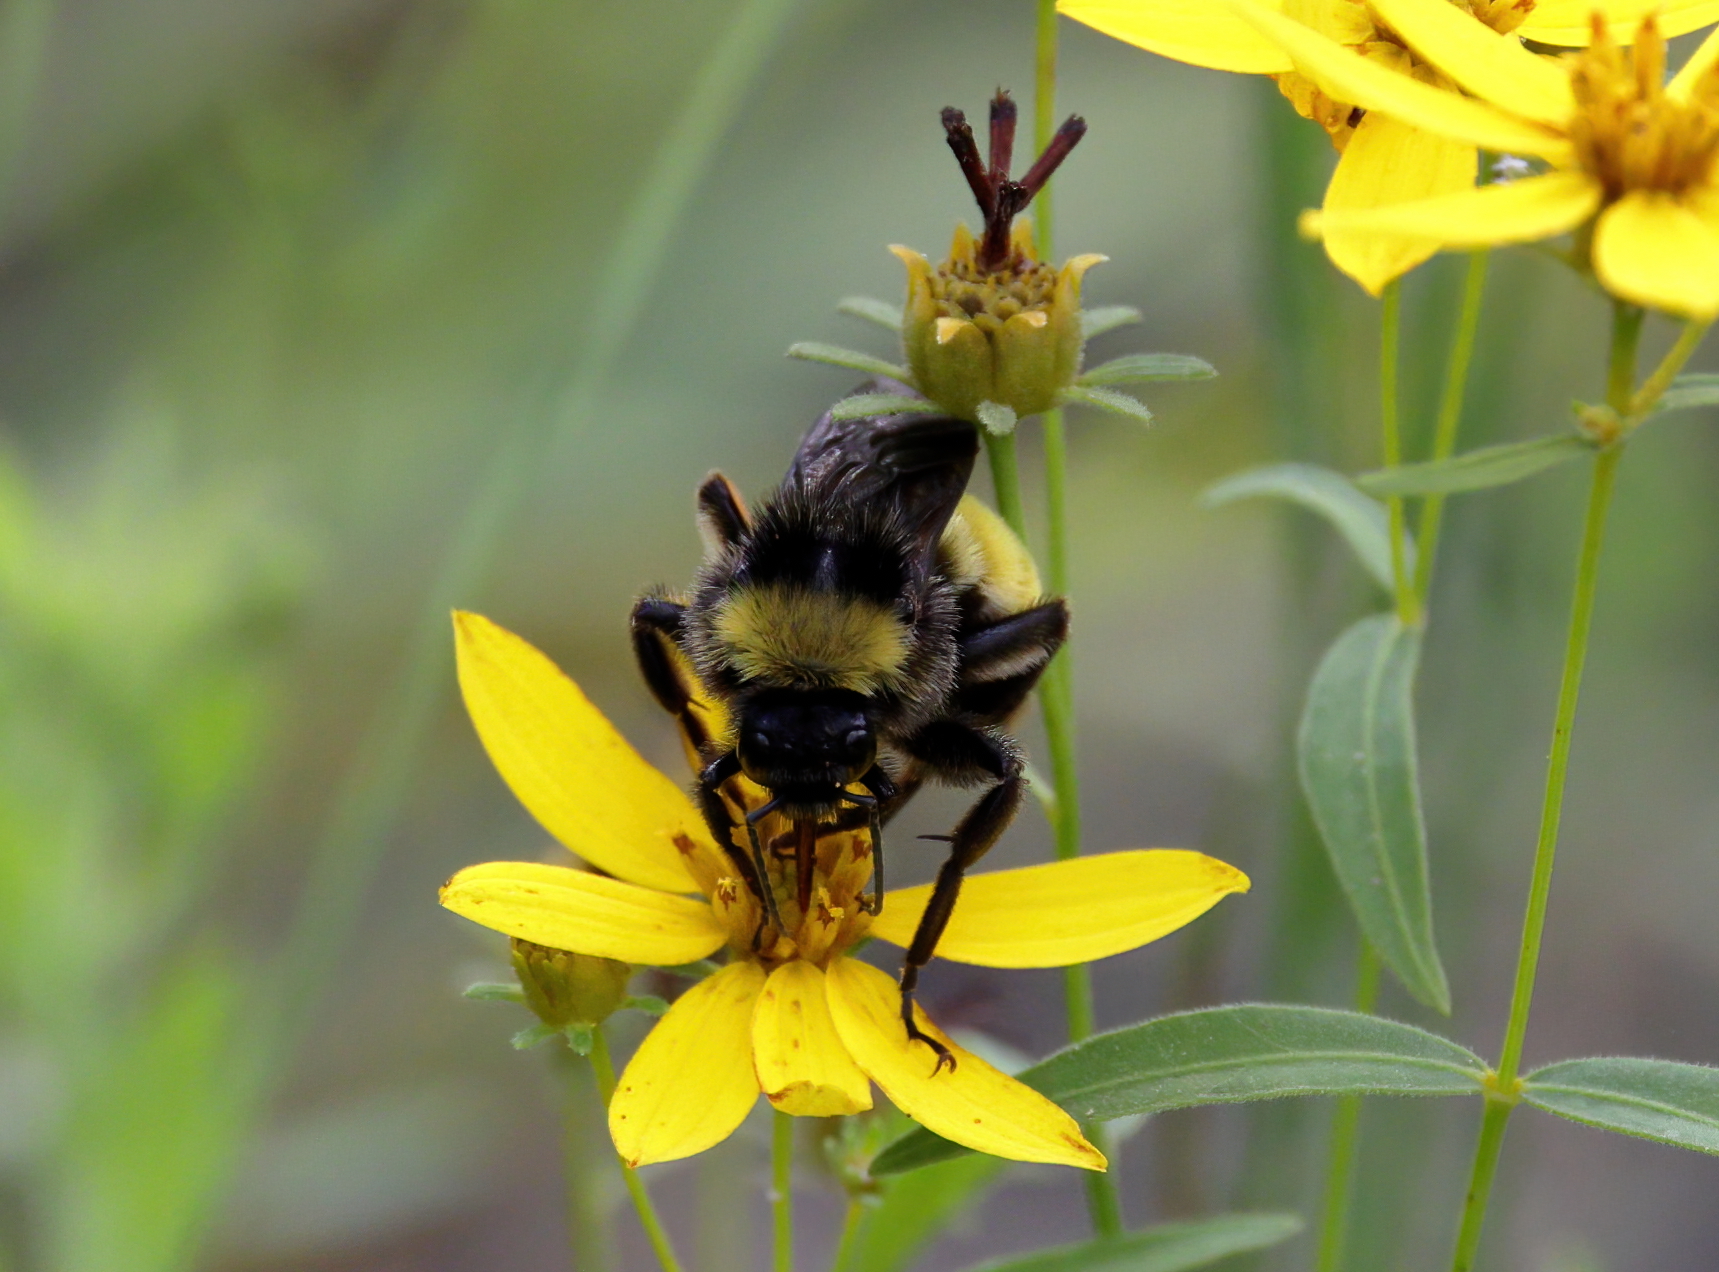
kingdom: Animalia
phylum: Arthropoda
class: Insecta
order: Hymenoptera
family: Apidae
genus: Bombus
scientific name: Bombus pensylvanicus
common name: Bumble bee
